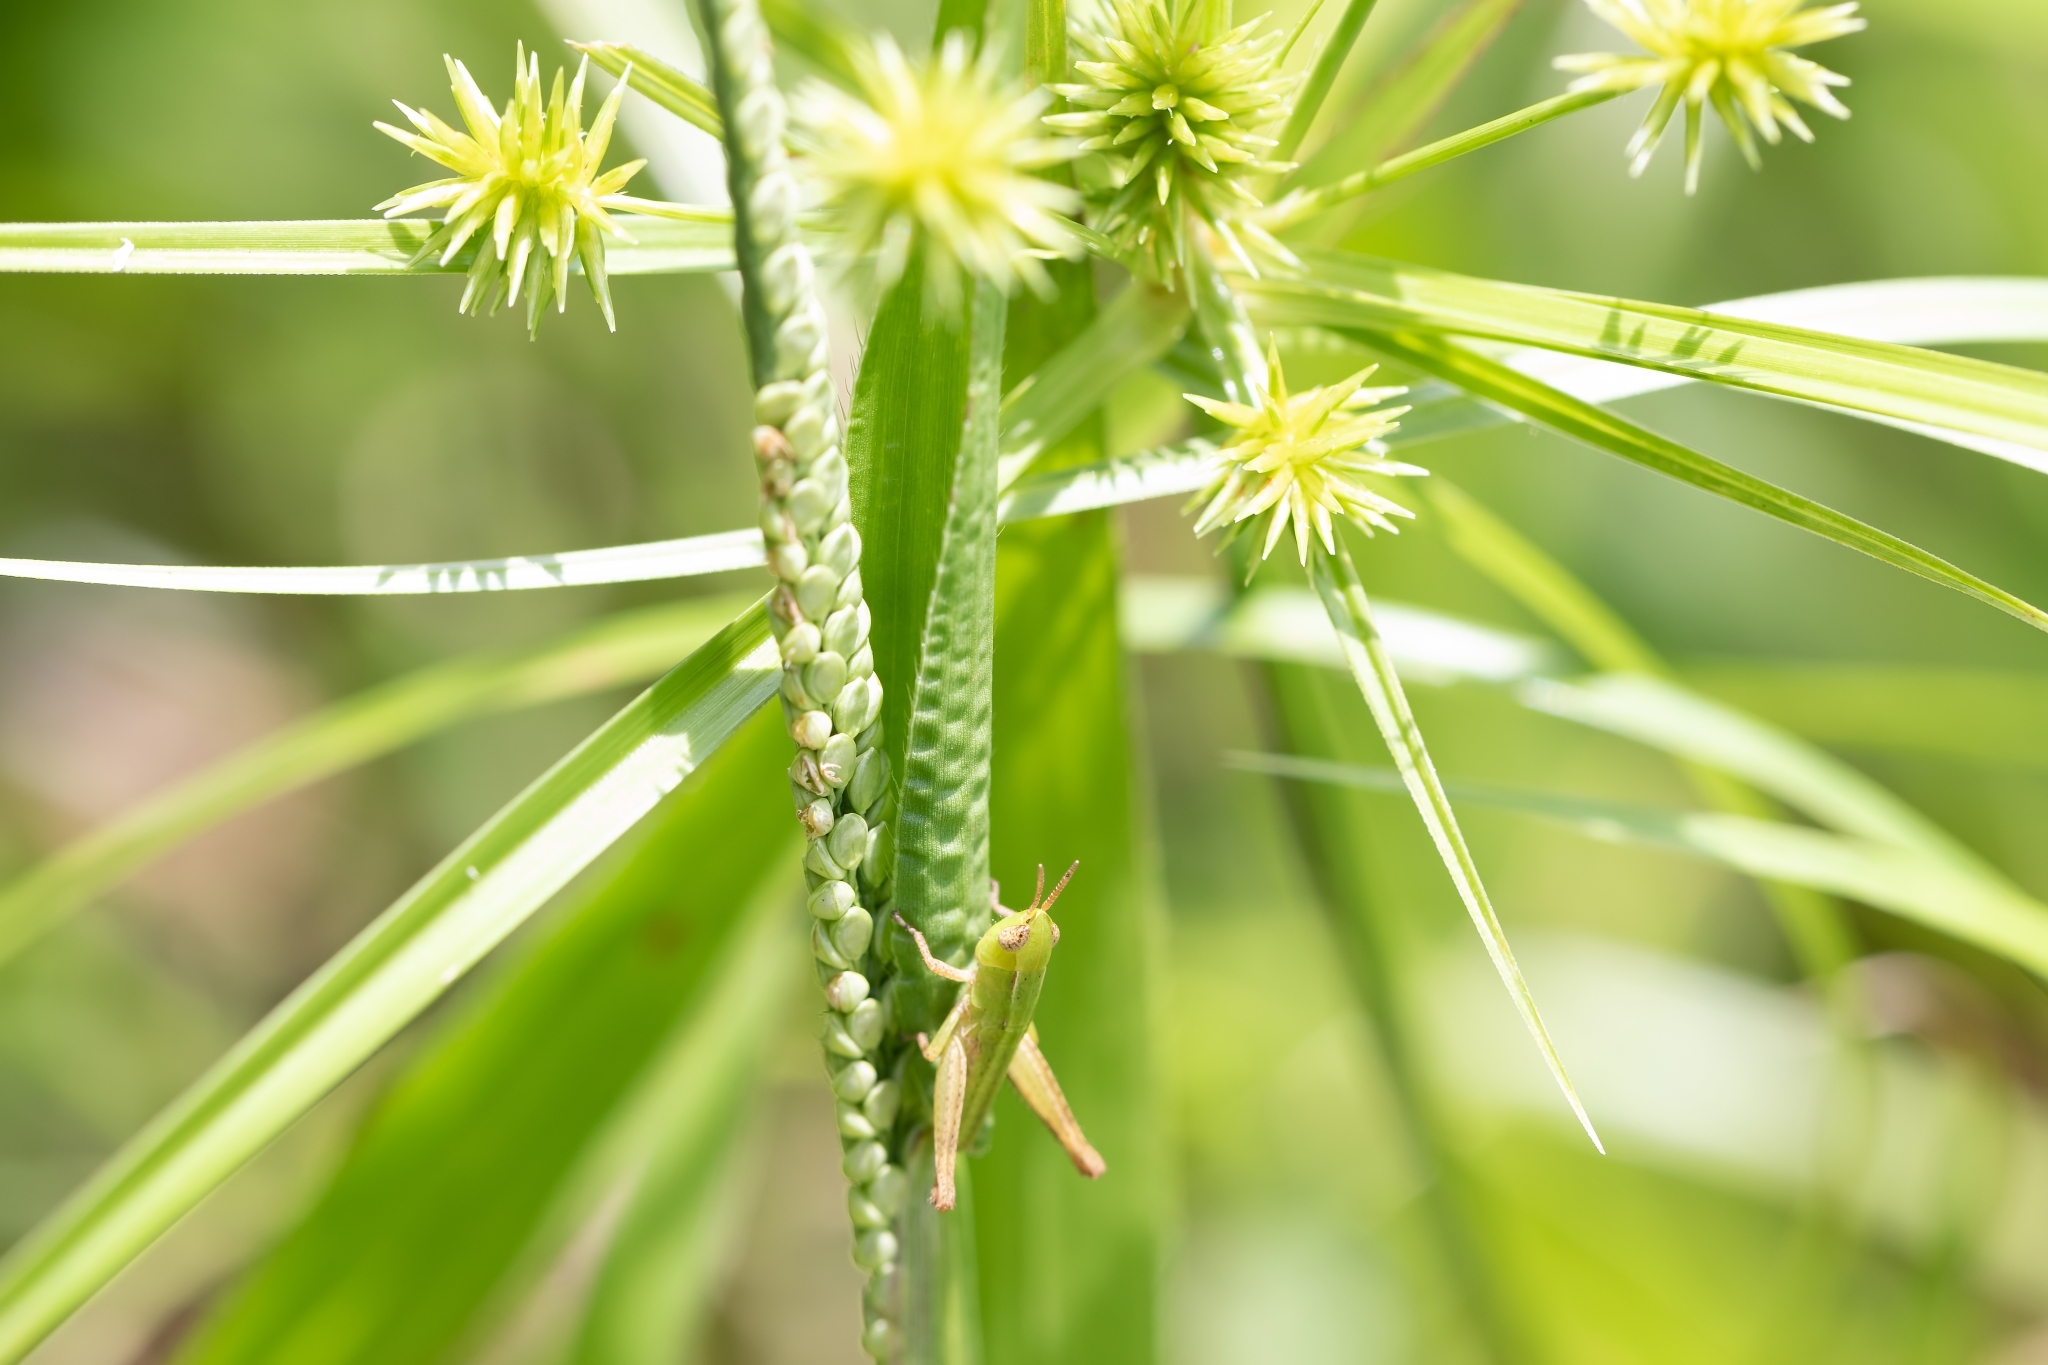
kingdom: Animalia
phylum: Arthropoda
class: Insecta
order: Orthoptera
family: Acrididae
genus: Dichromorpha
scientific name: Dichromorpha viridis
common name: Short-winged green grasshopper
